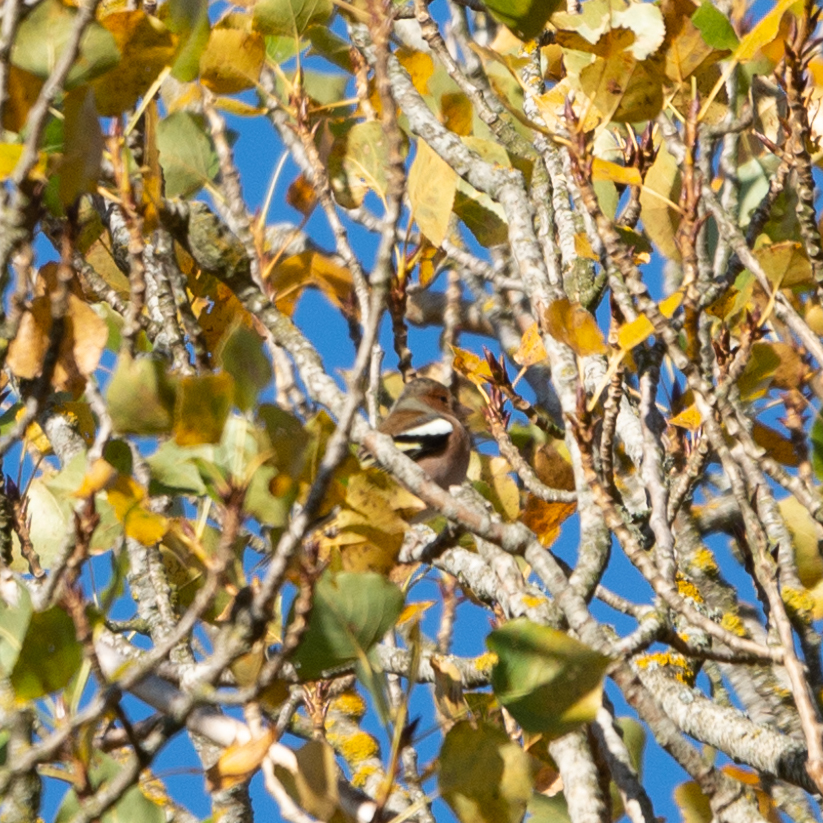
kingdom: Animalia
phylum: Chordata
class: Aves
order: Passeriformes
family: Fringillidae
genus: Fringilla
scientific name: Fringilla coelebs
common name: Common chaffinch
